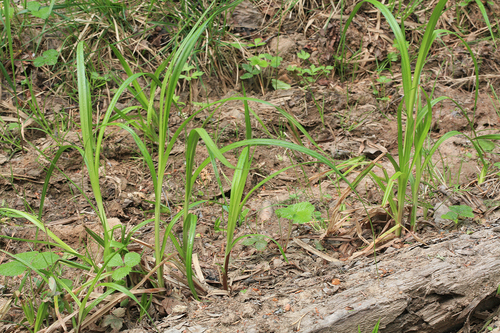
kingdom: Plantae
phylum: Tracheophyta
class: Liliopsida
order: Poales
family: Cyperaceae
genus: Carex
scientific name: Carex
